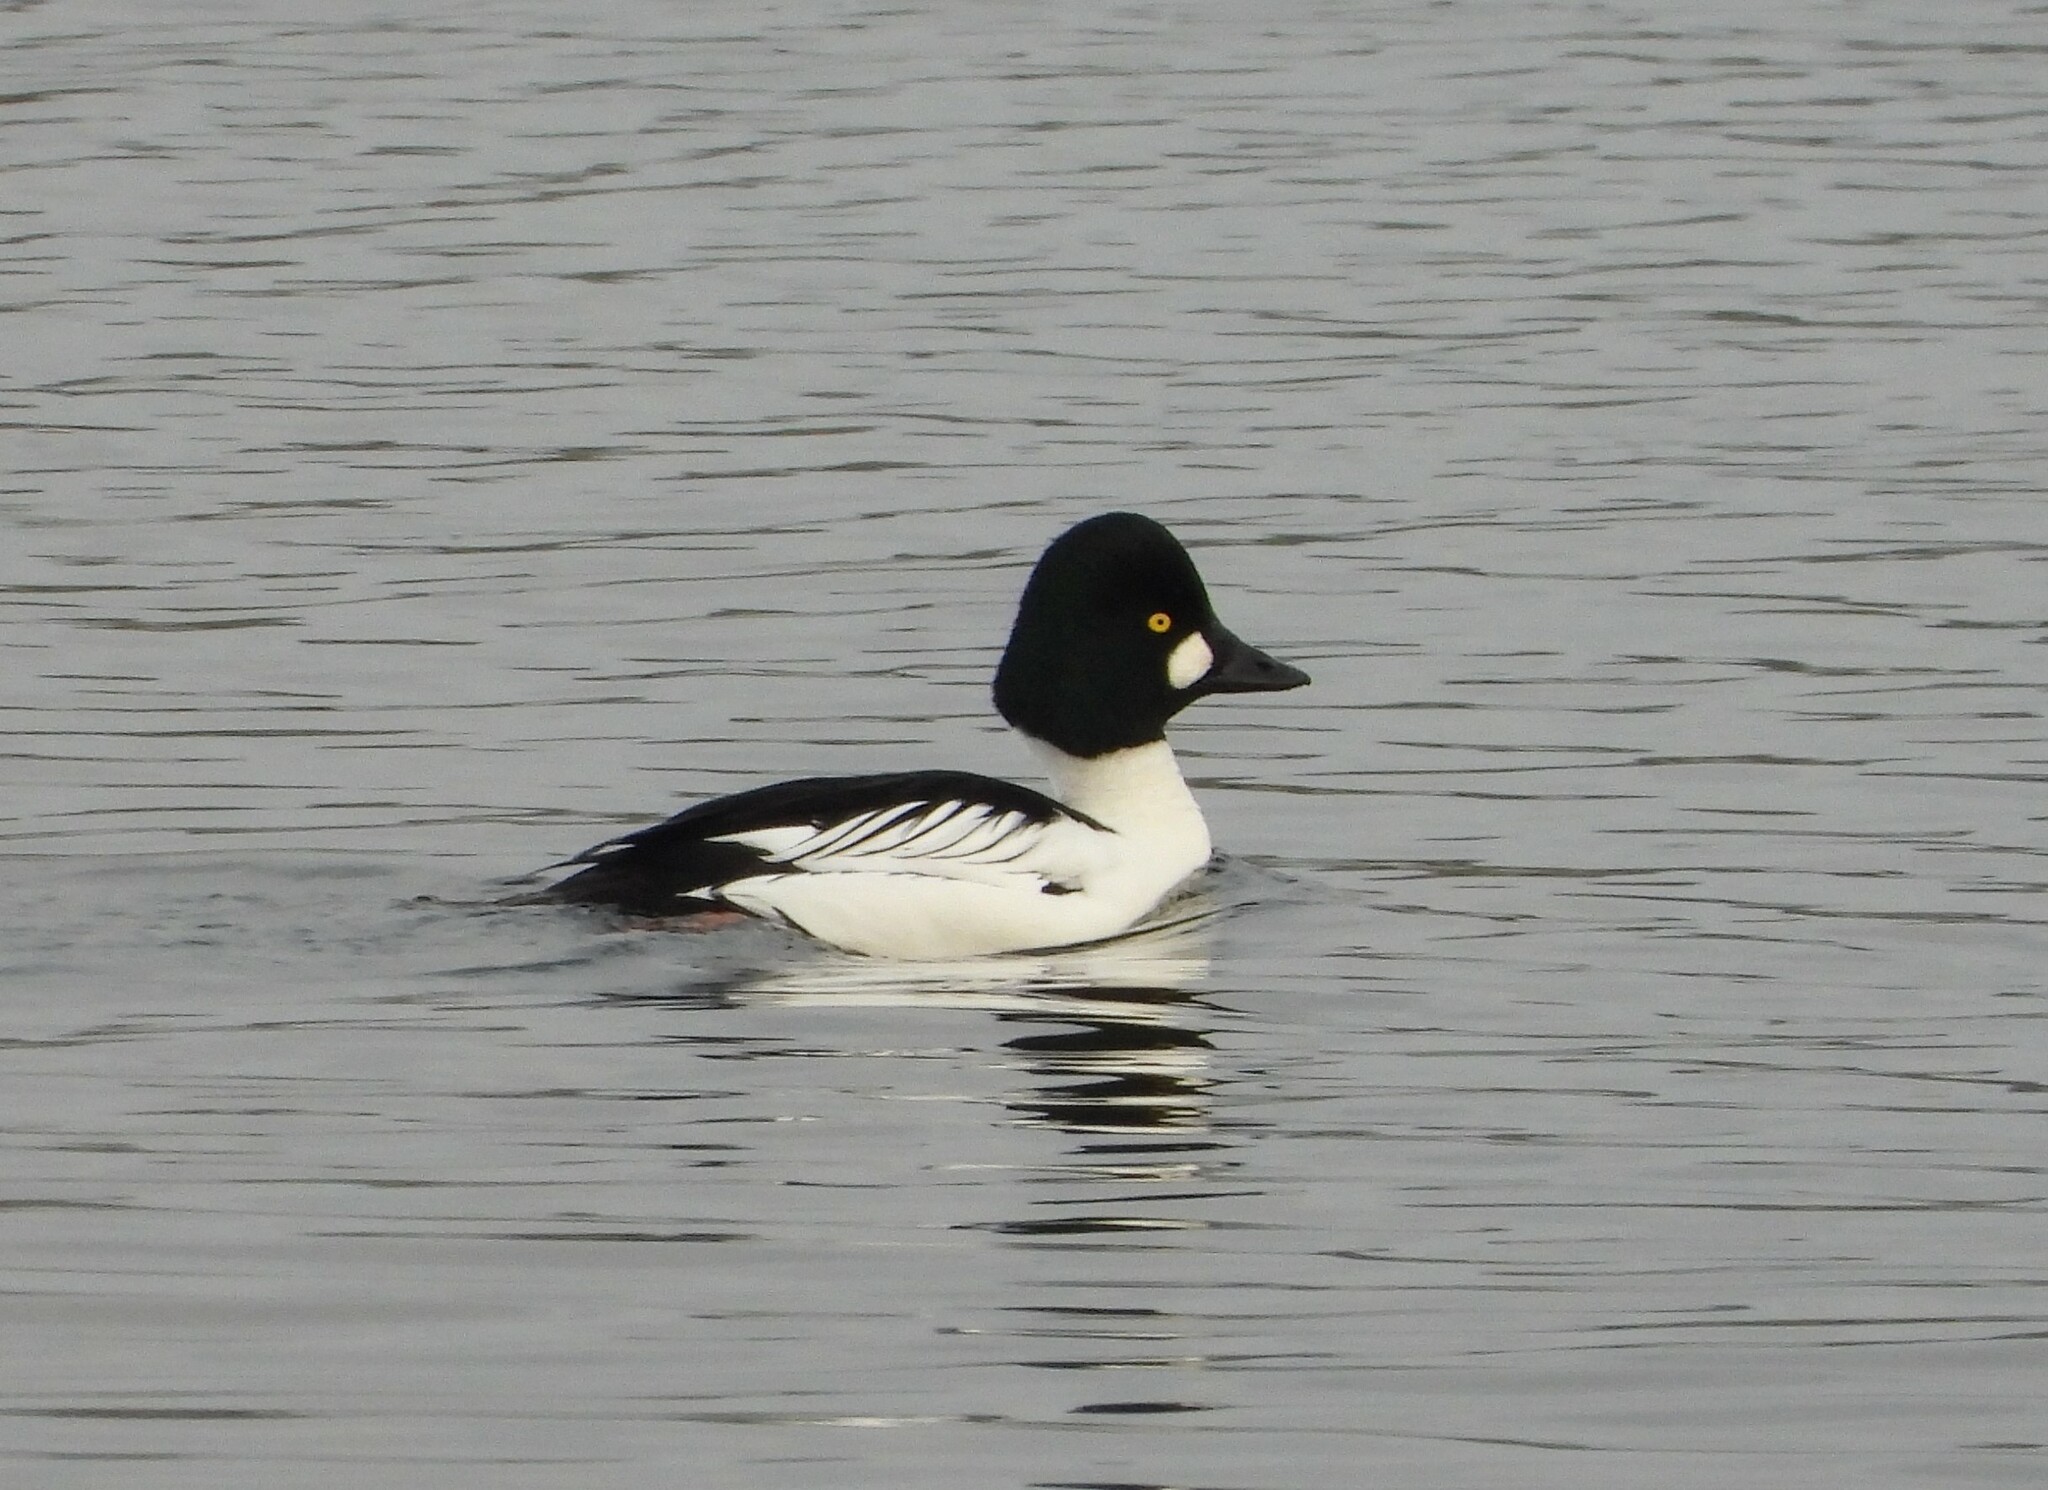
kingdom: Animalia
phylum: Chordata
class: Aves
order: Anseriformes
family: Anatidae
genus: Bucephala
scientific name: Bucephala clangula
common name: Common goldeneye
